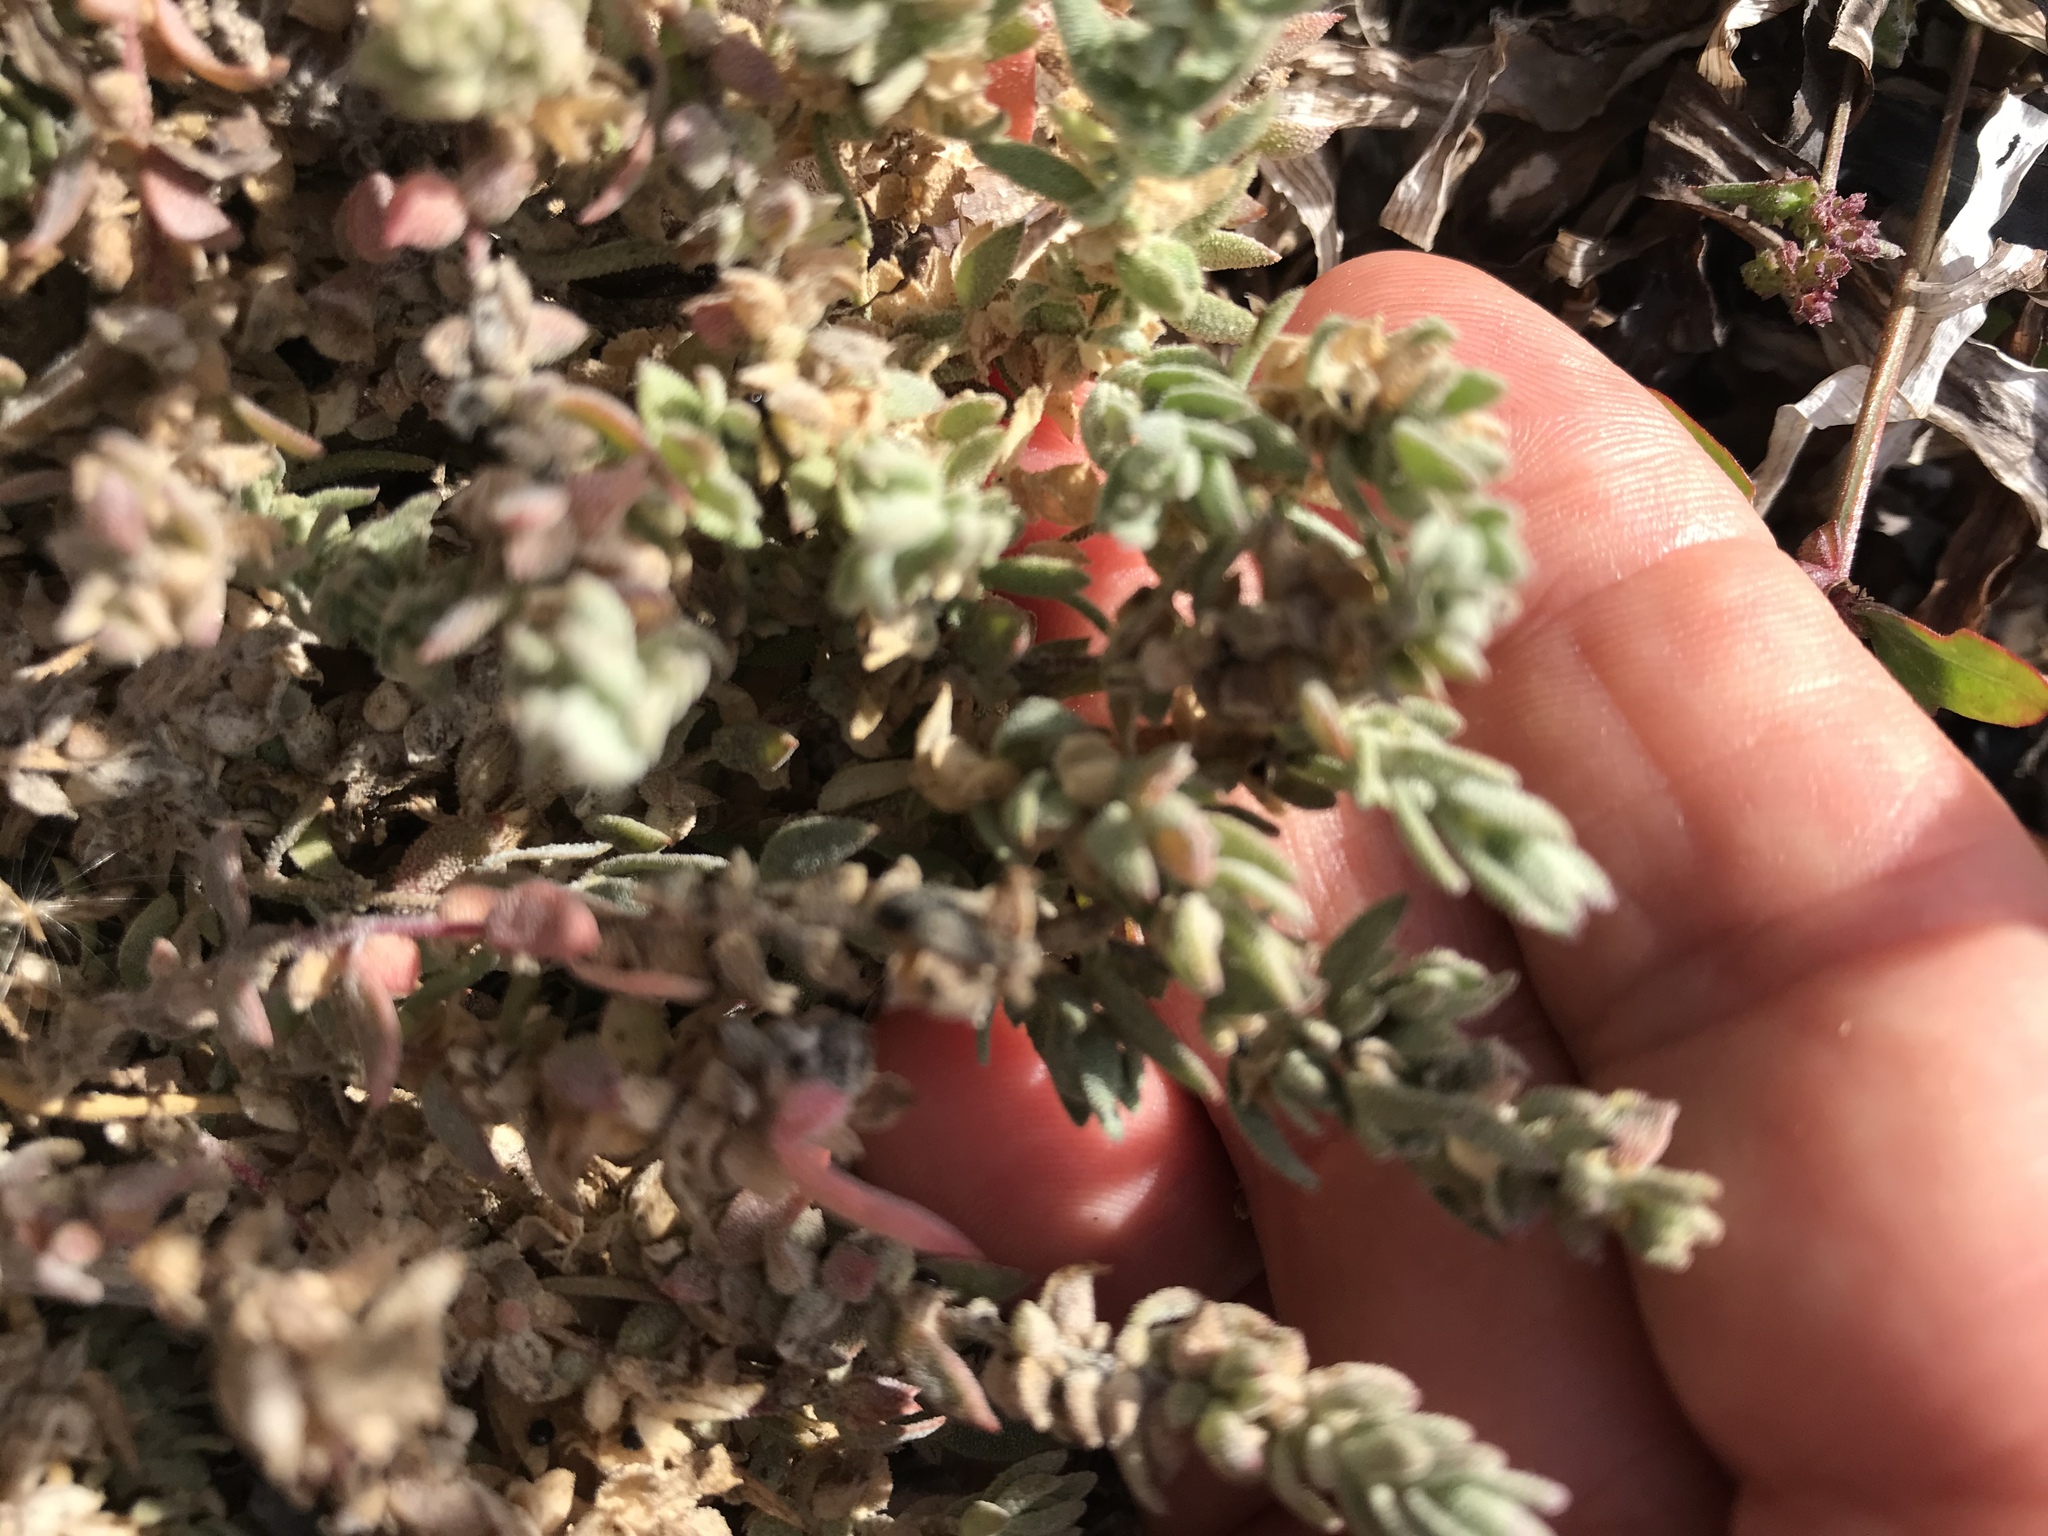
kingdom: Plantae
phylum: Tracheophyta
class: Magnoliopsida
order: Caryophyllales
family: Amaranthaceae
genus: Extriplex
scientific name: Extriplex californica
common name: California saltbush
